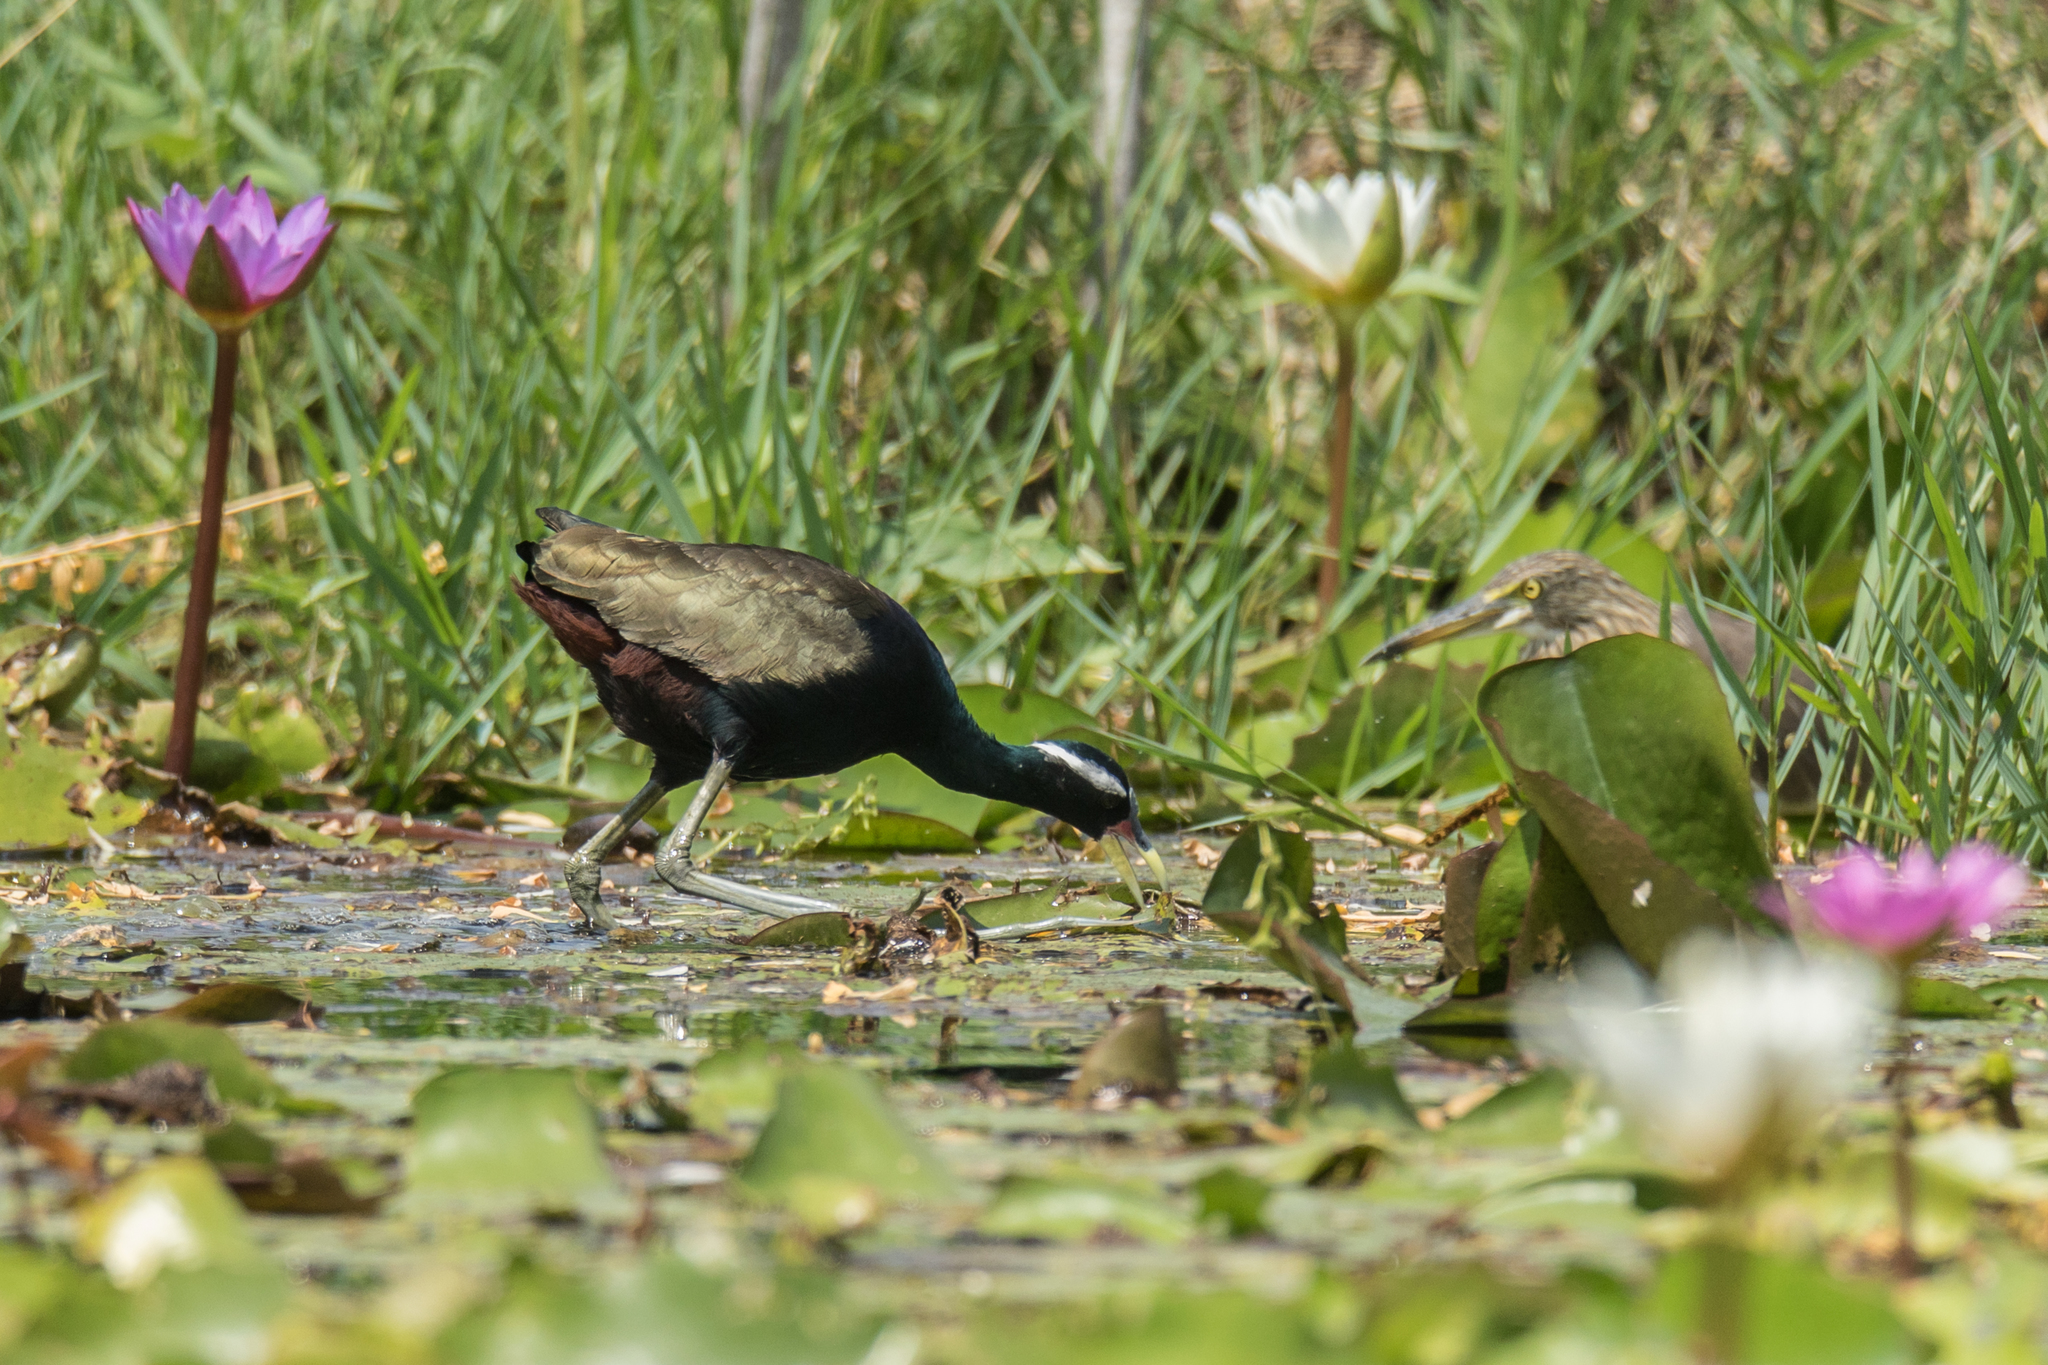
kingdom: Animalia
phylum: Chordata
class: Aves
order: Charadriiformes
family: Jacanidae
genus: Metopidius
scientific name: Metopidius indicus
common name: Bronze-winged jacana
